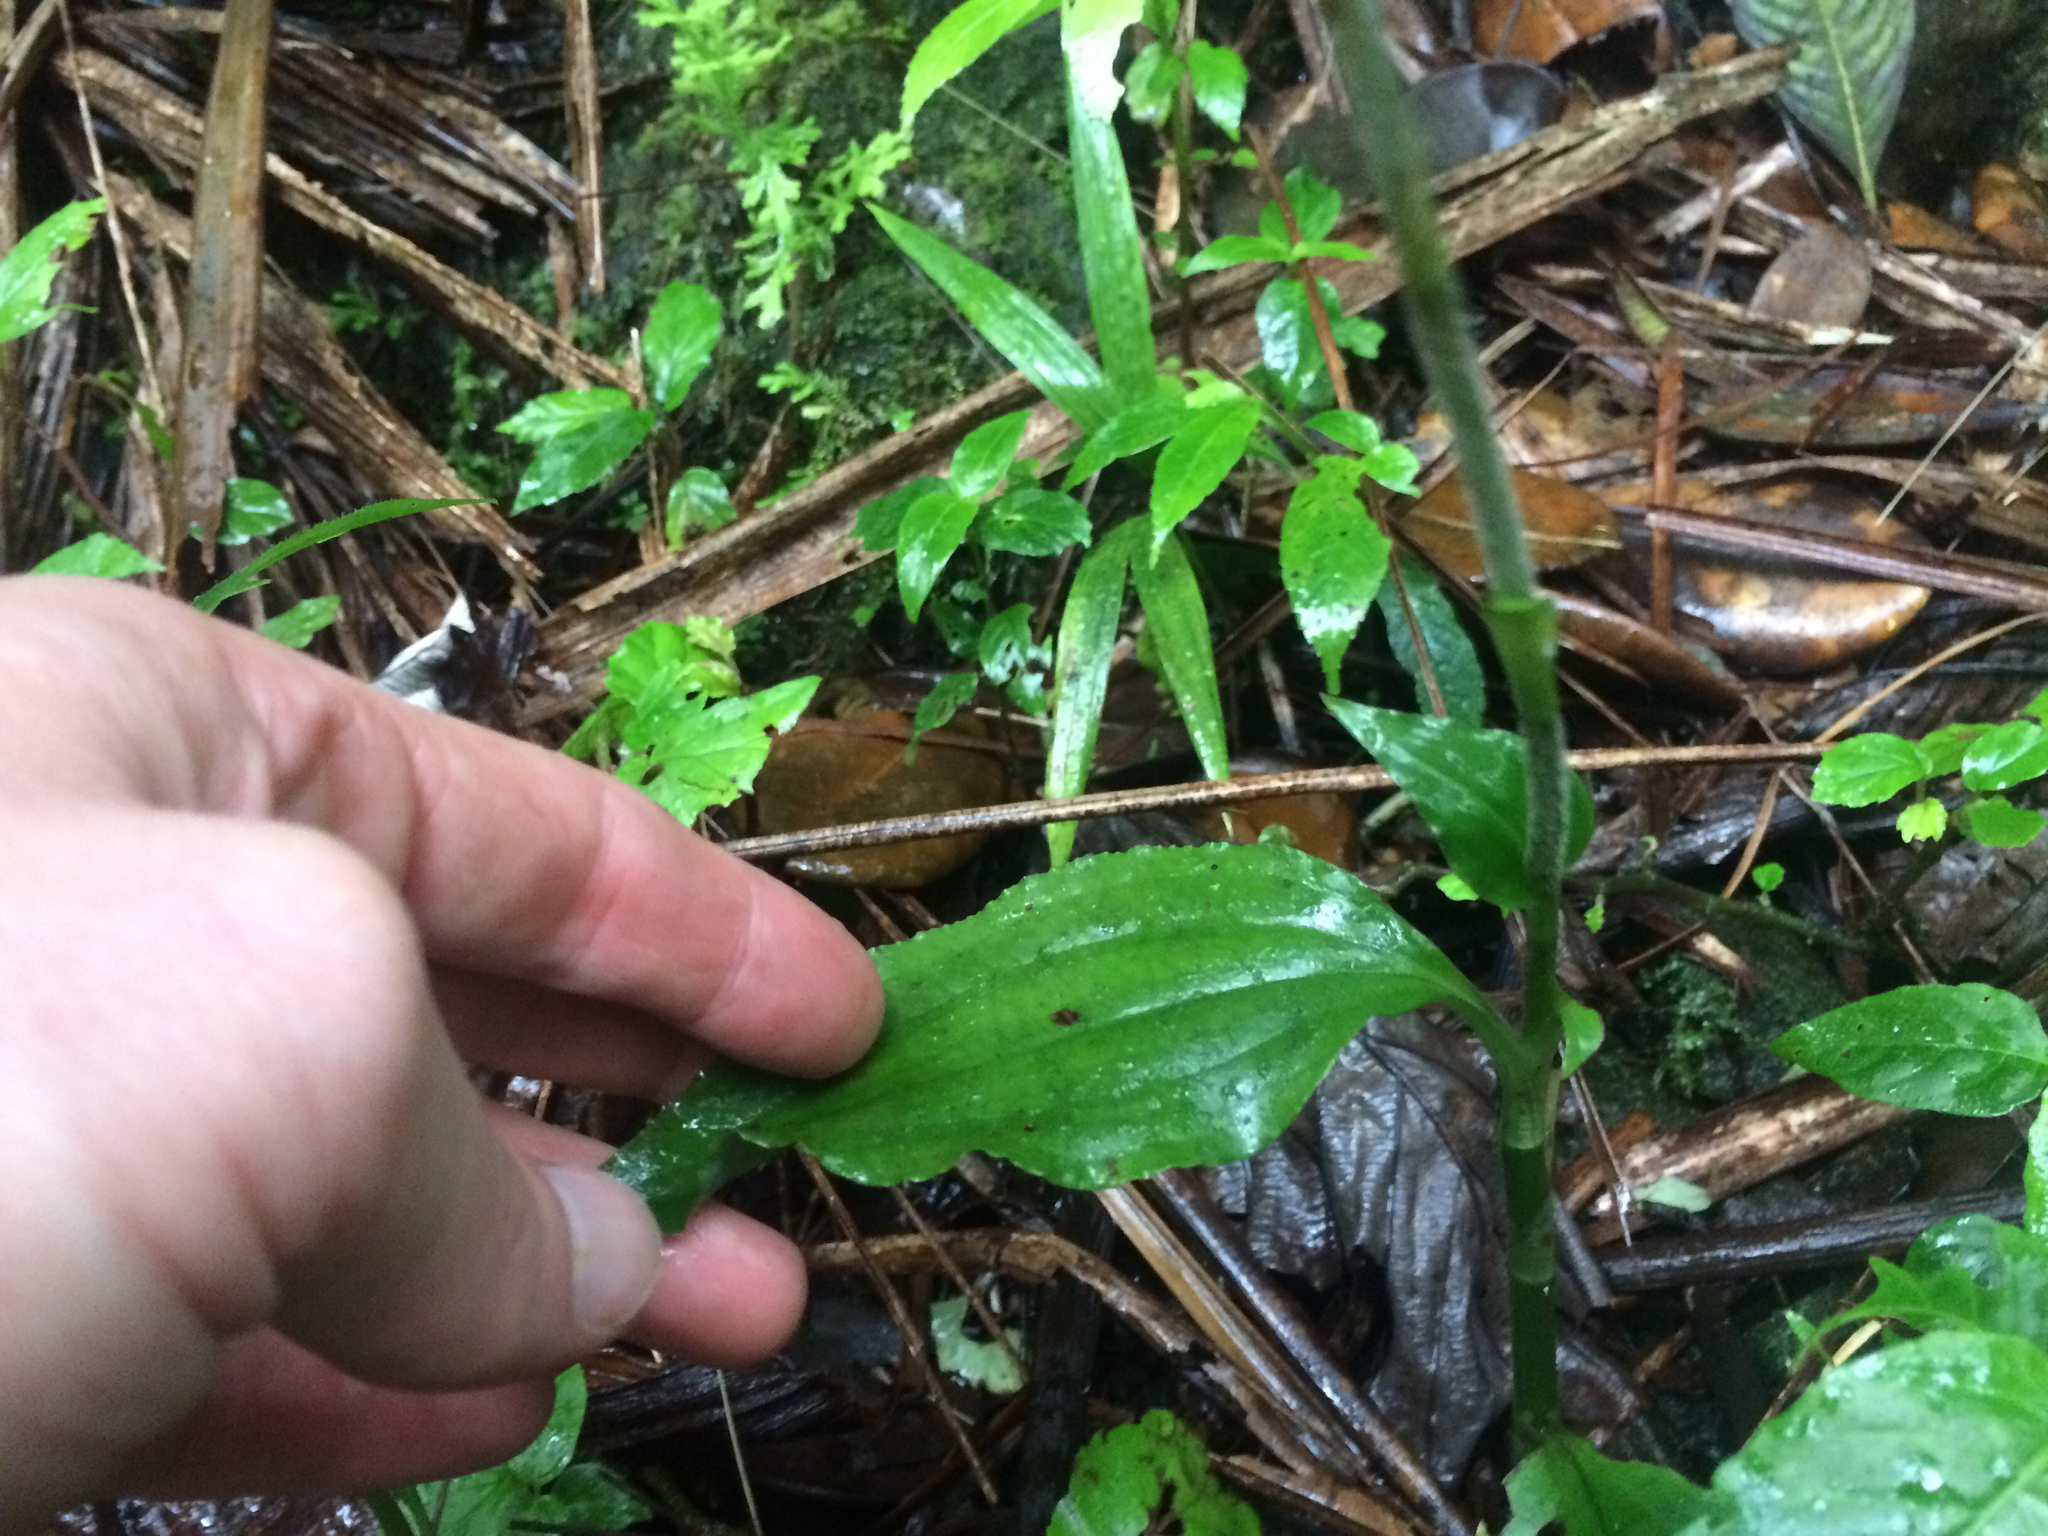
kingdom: Plantae
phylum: Tracheophyta
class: Liliopsida
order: Asparagales
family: Orchidaceae
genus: Microchilus
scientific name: Microchilus plantagineus
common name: Caribbean false helmetorchid
